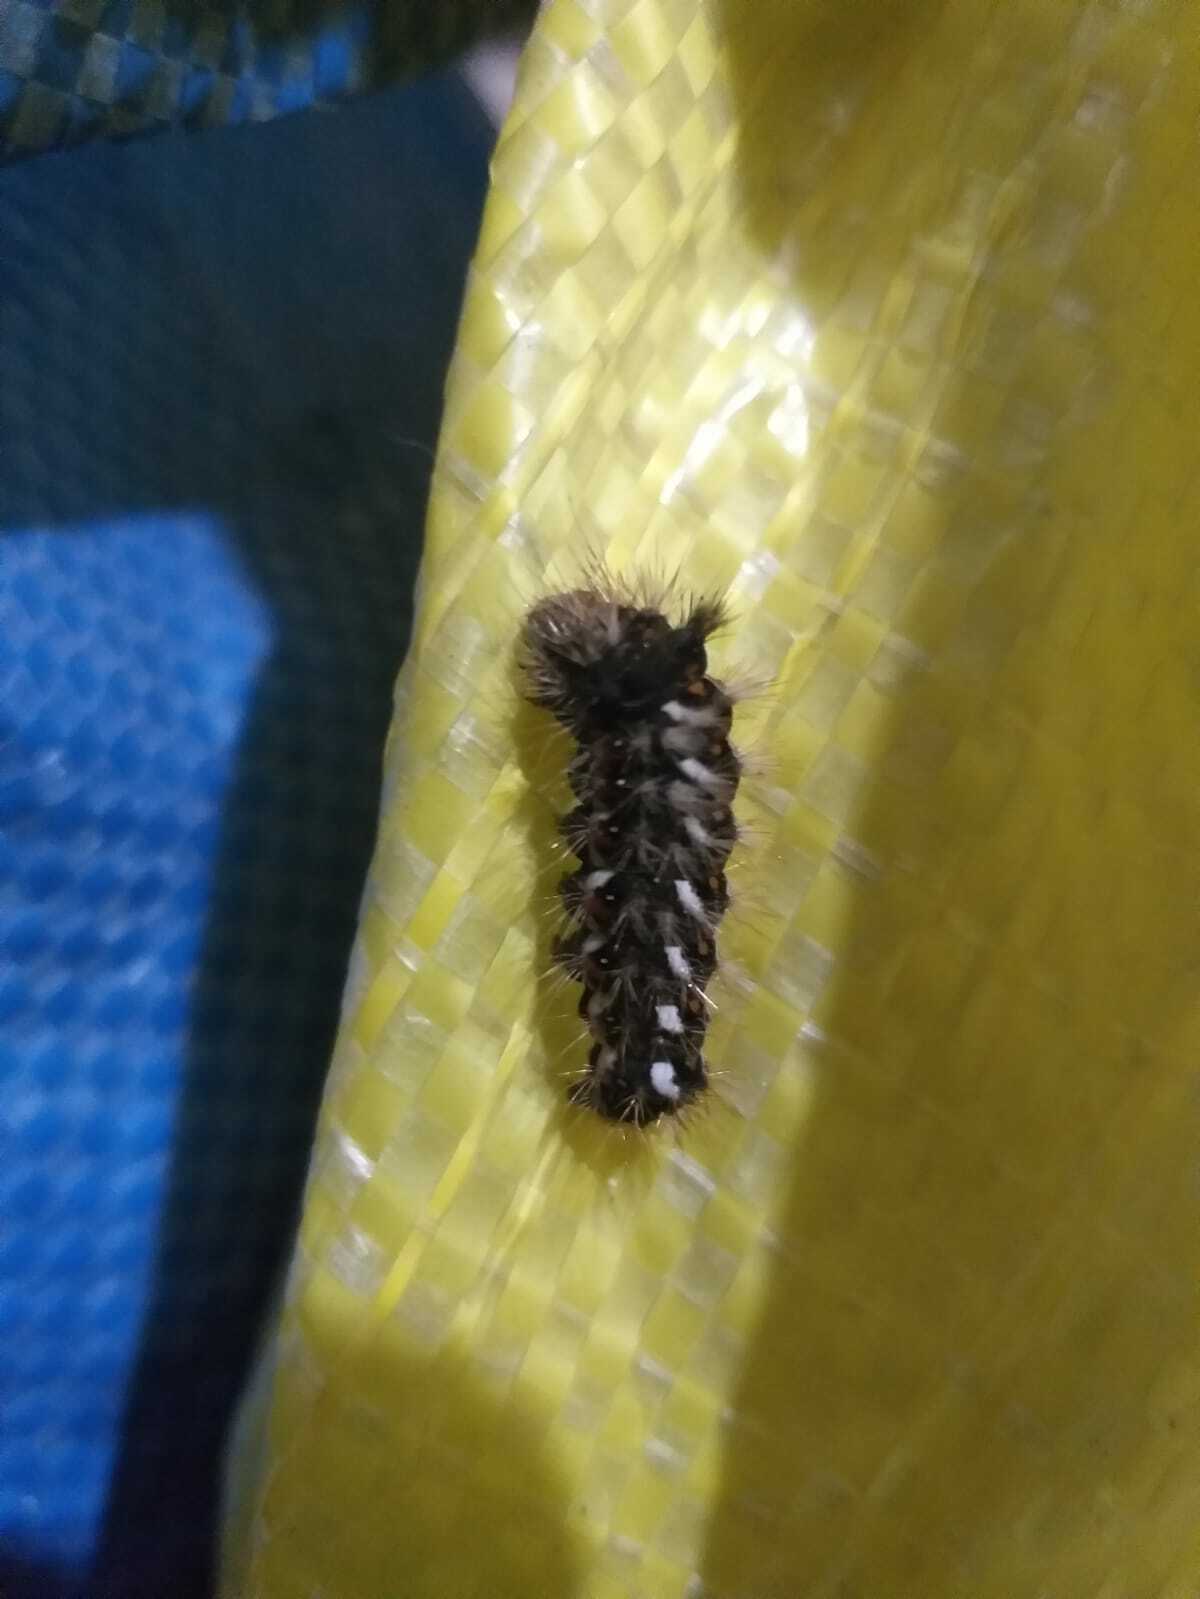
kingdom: Animalia
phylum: Arthropoda
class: Insecta
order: Lepidoptera
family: Noctuidae
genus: Acronicta
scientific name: Acronicta rumicis
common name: Knot grass
